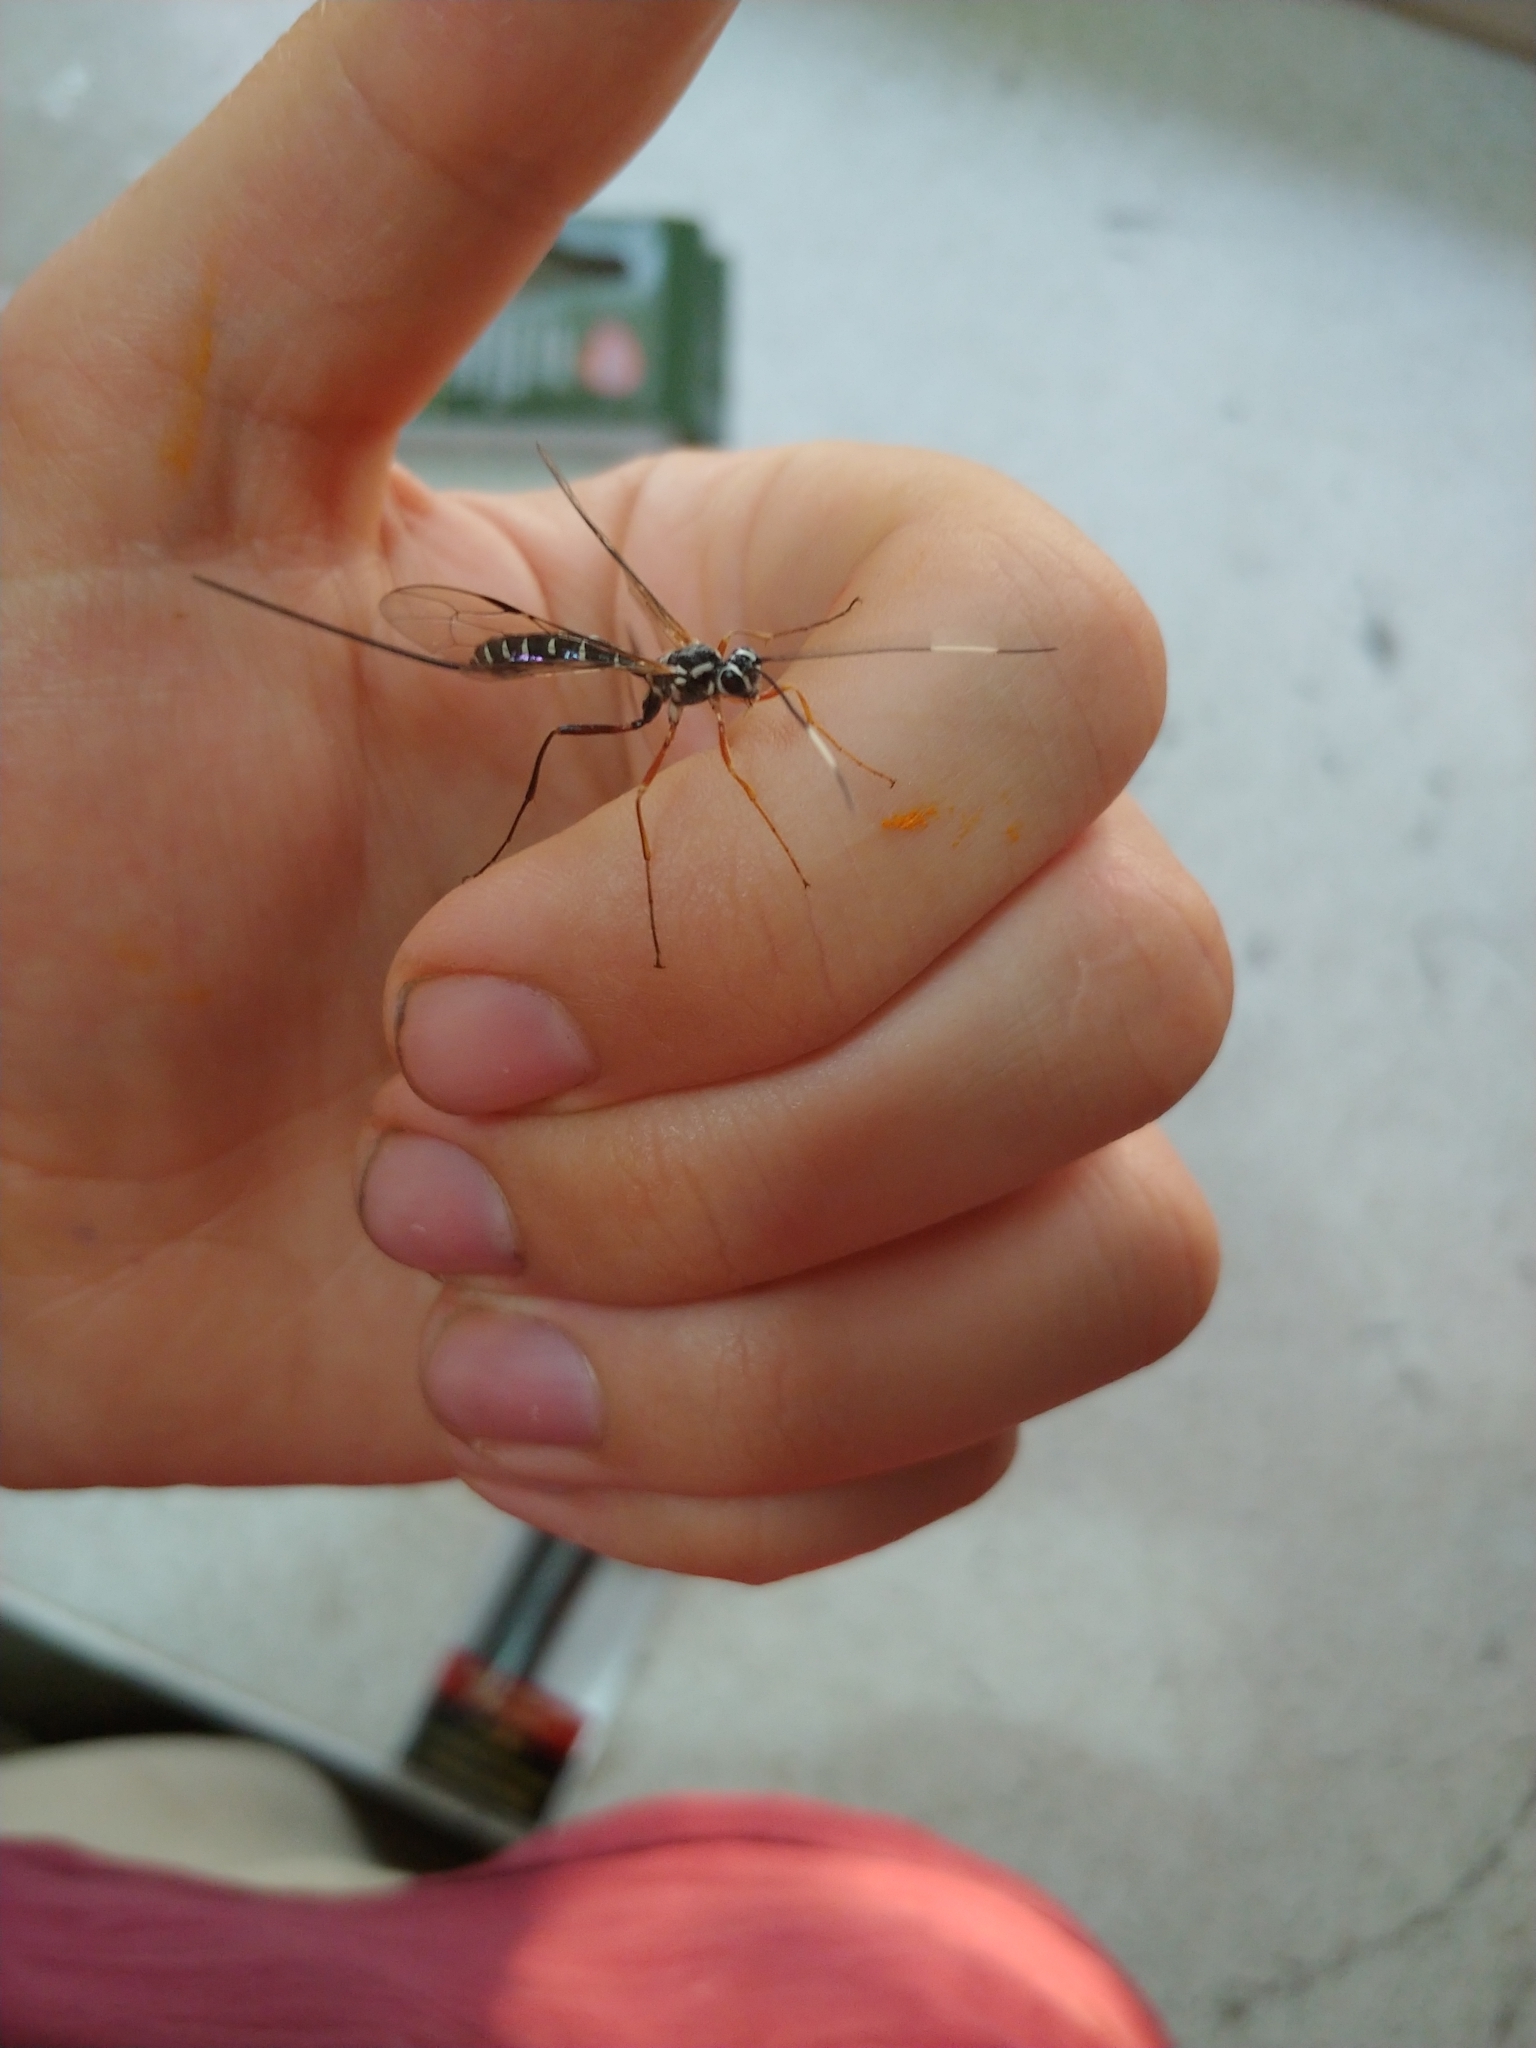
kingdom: Animalia
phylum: Arthropoda
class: Insecta
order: Hymenoptera
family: Ichneumonidae
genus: Rhyssa
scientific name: Rhyssa lineolata
